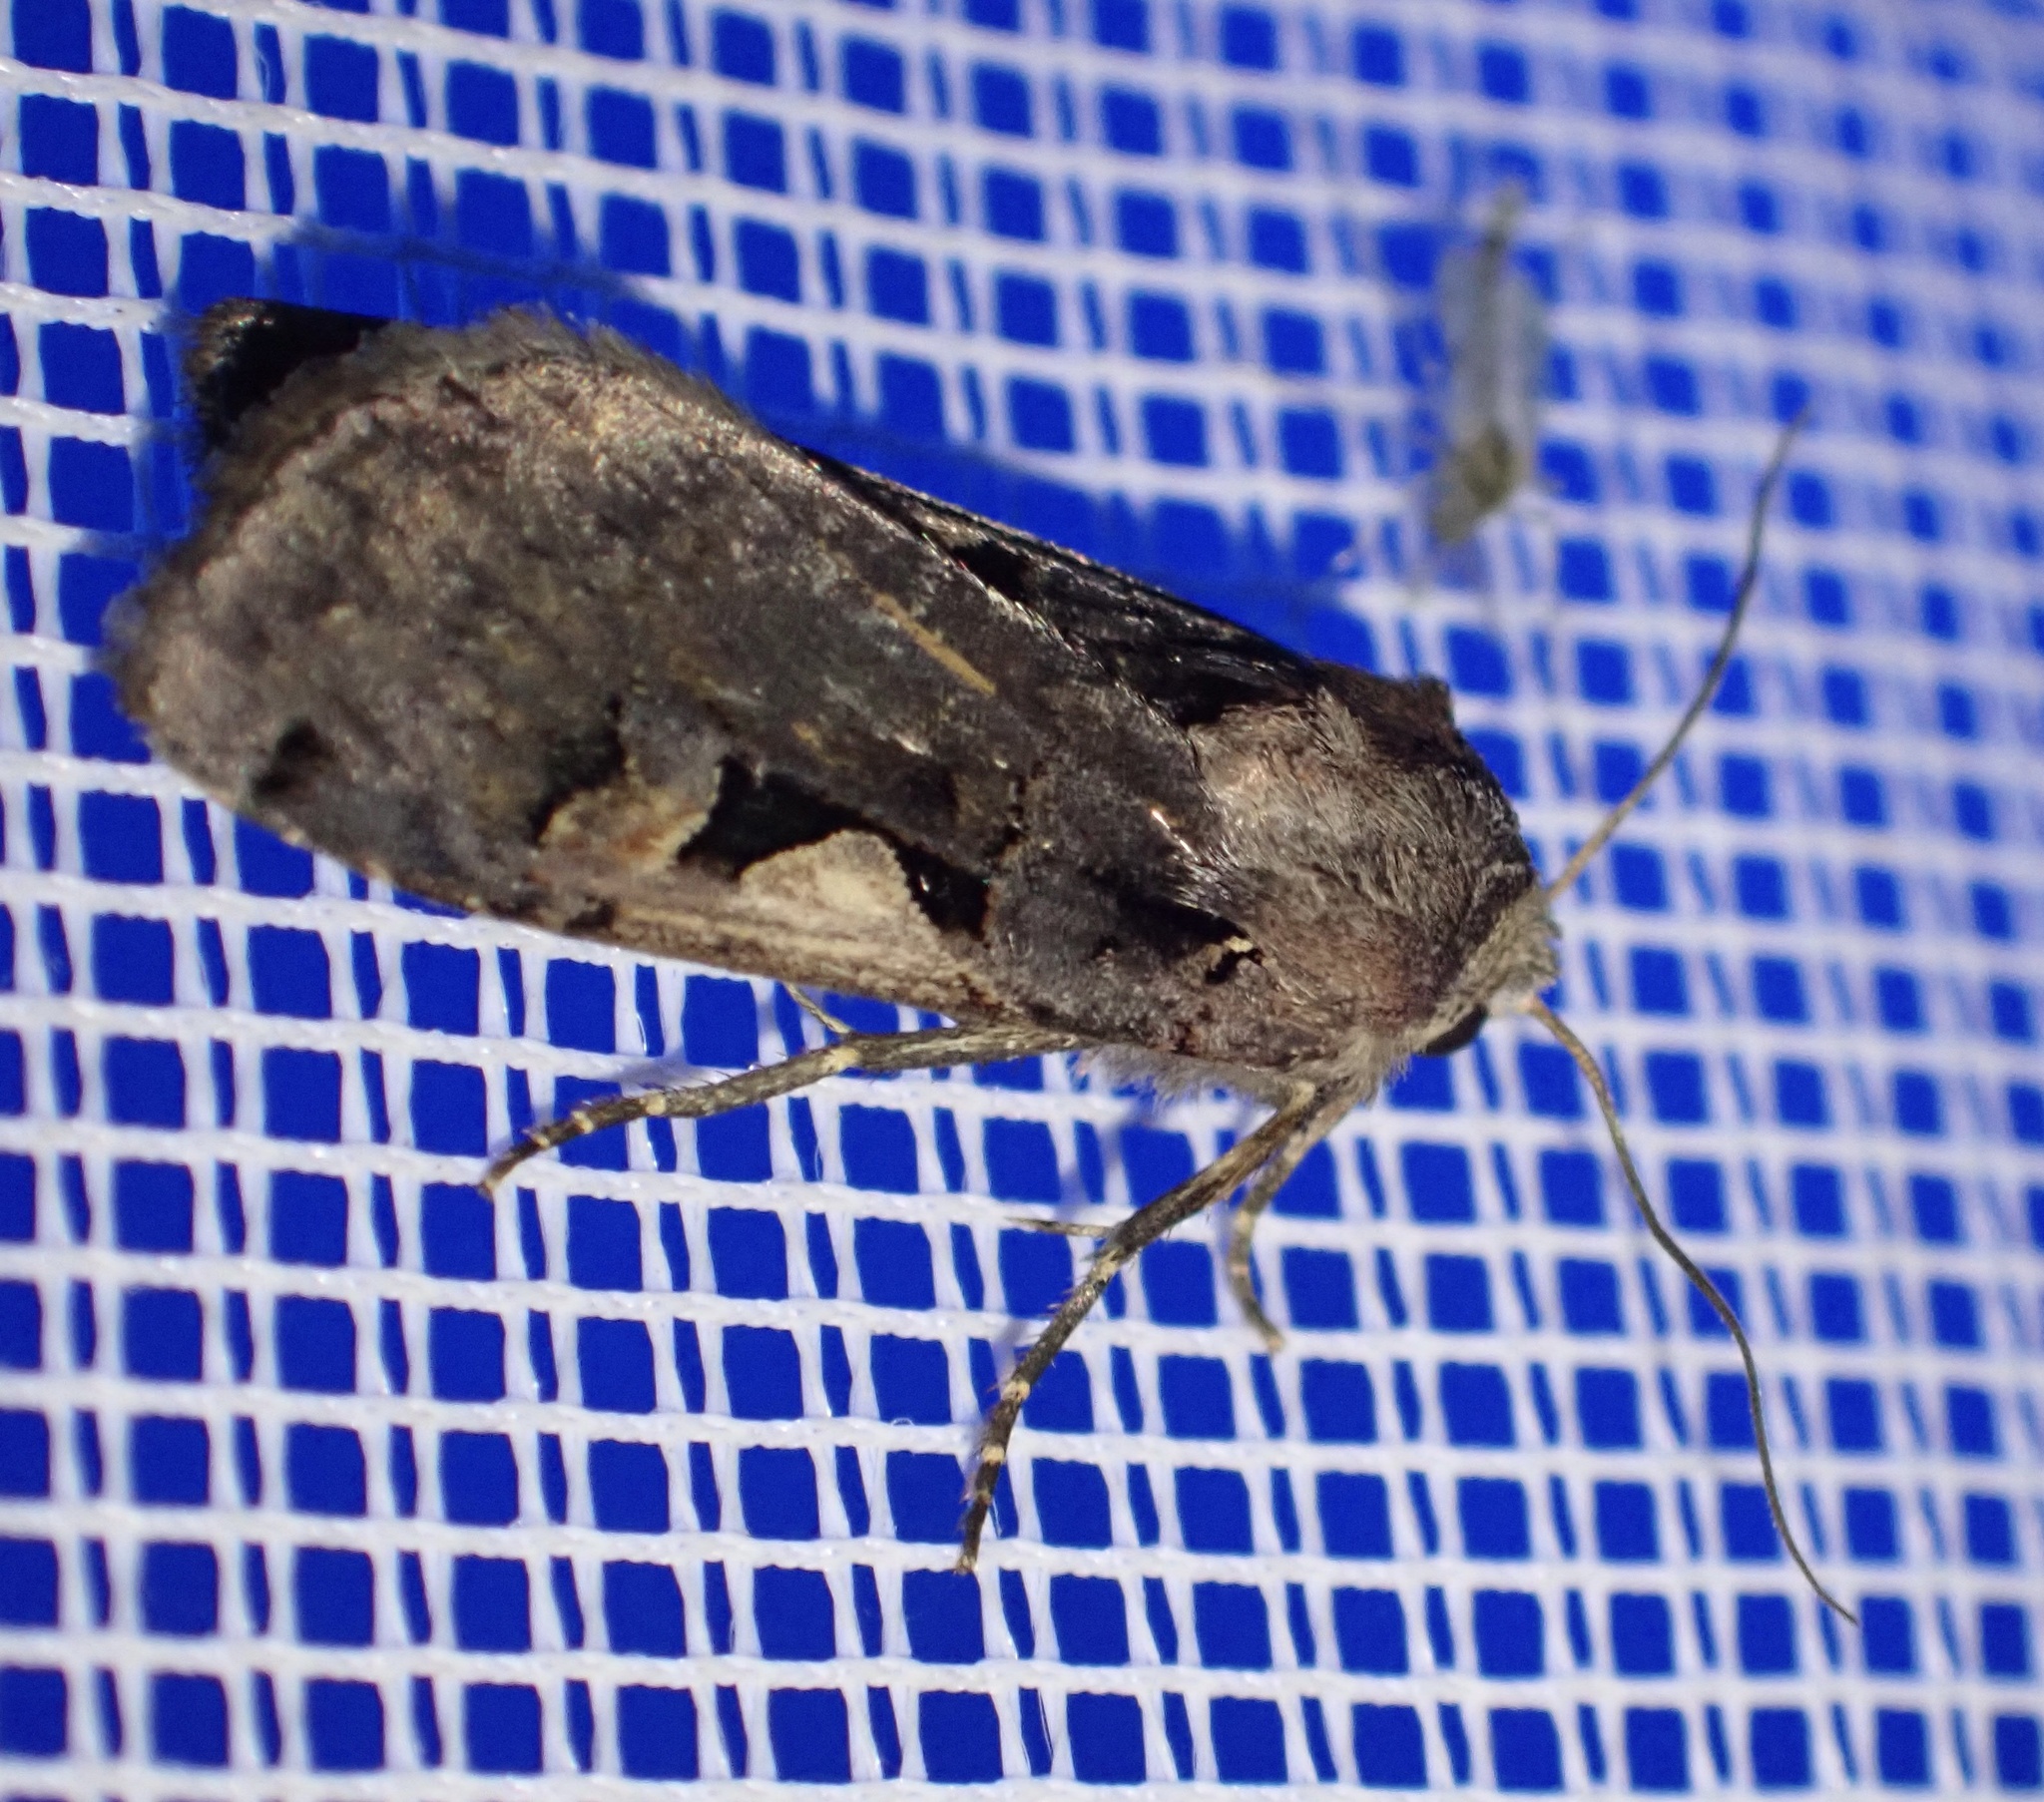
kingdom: Animalia
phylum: Arthropoda
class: Insecta
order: Lepidoptera
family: Noctuidae
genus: Xestia
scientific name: Xestia c-nigrum
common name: Setaceous hebrew character
